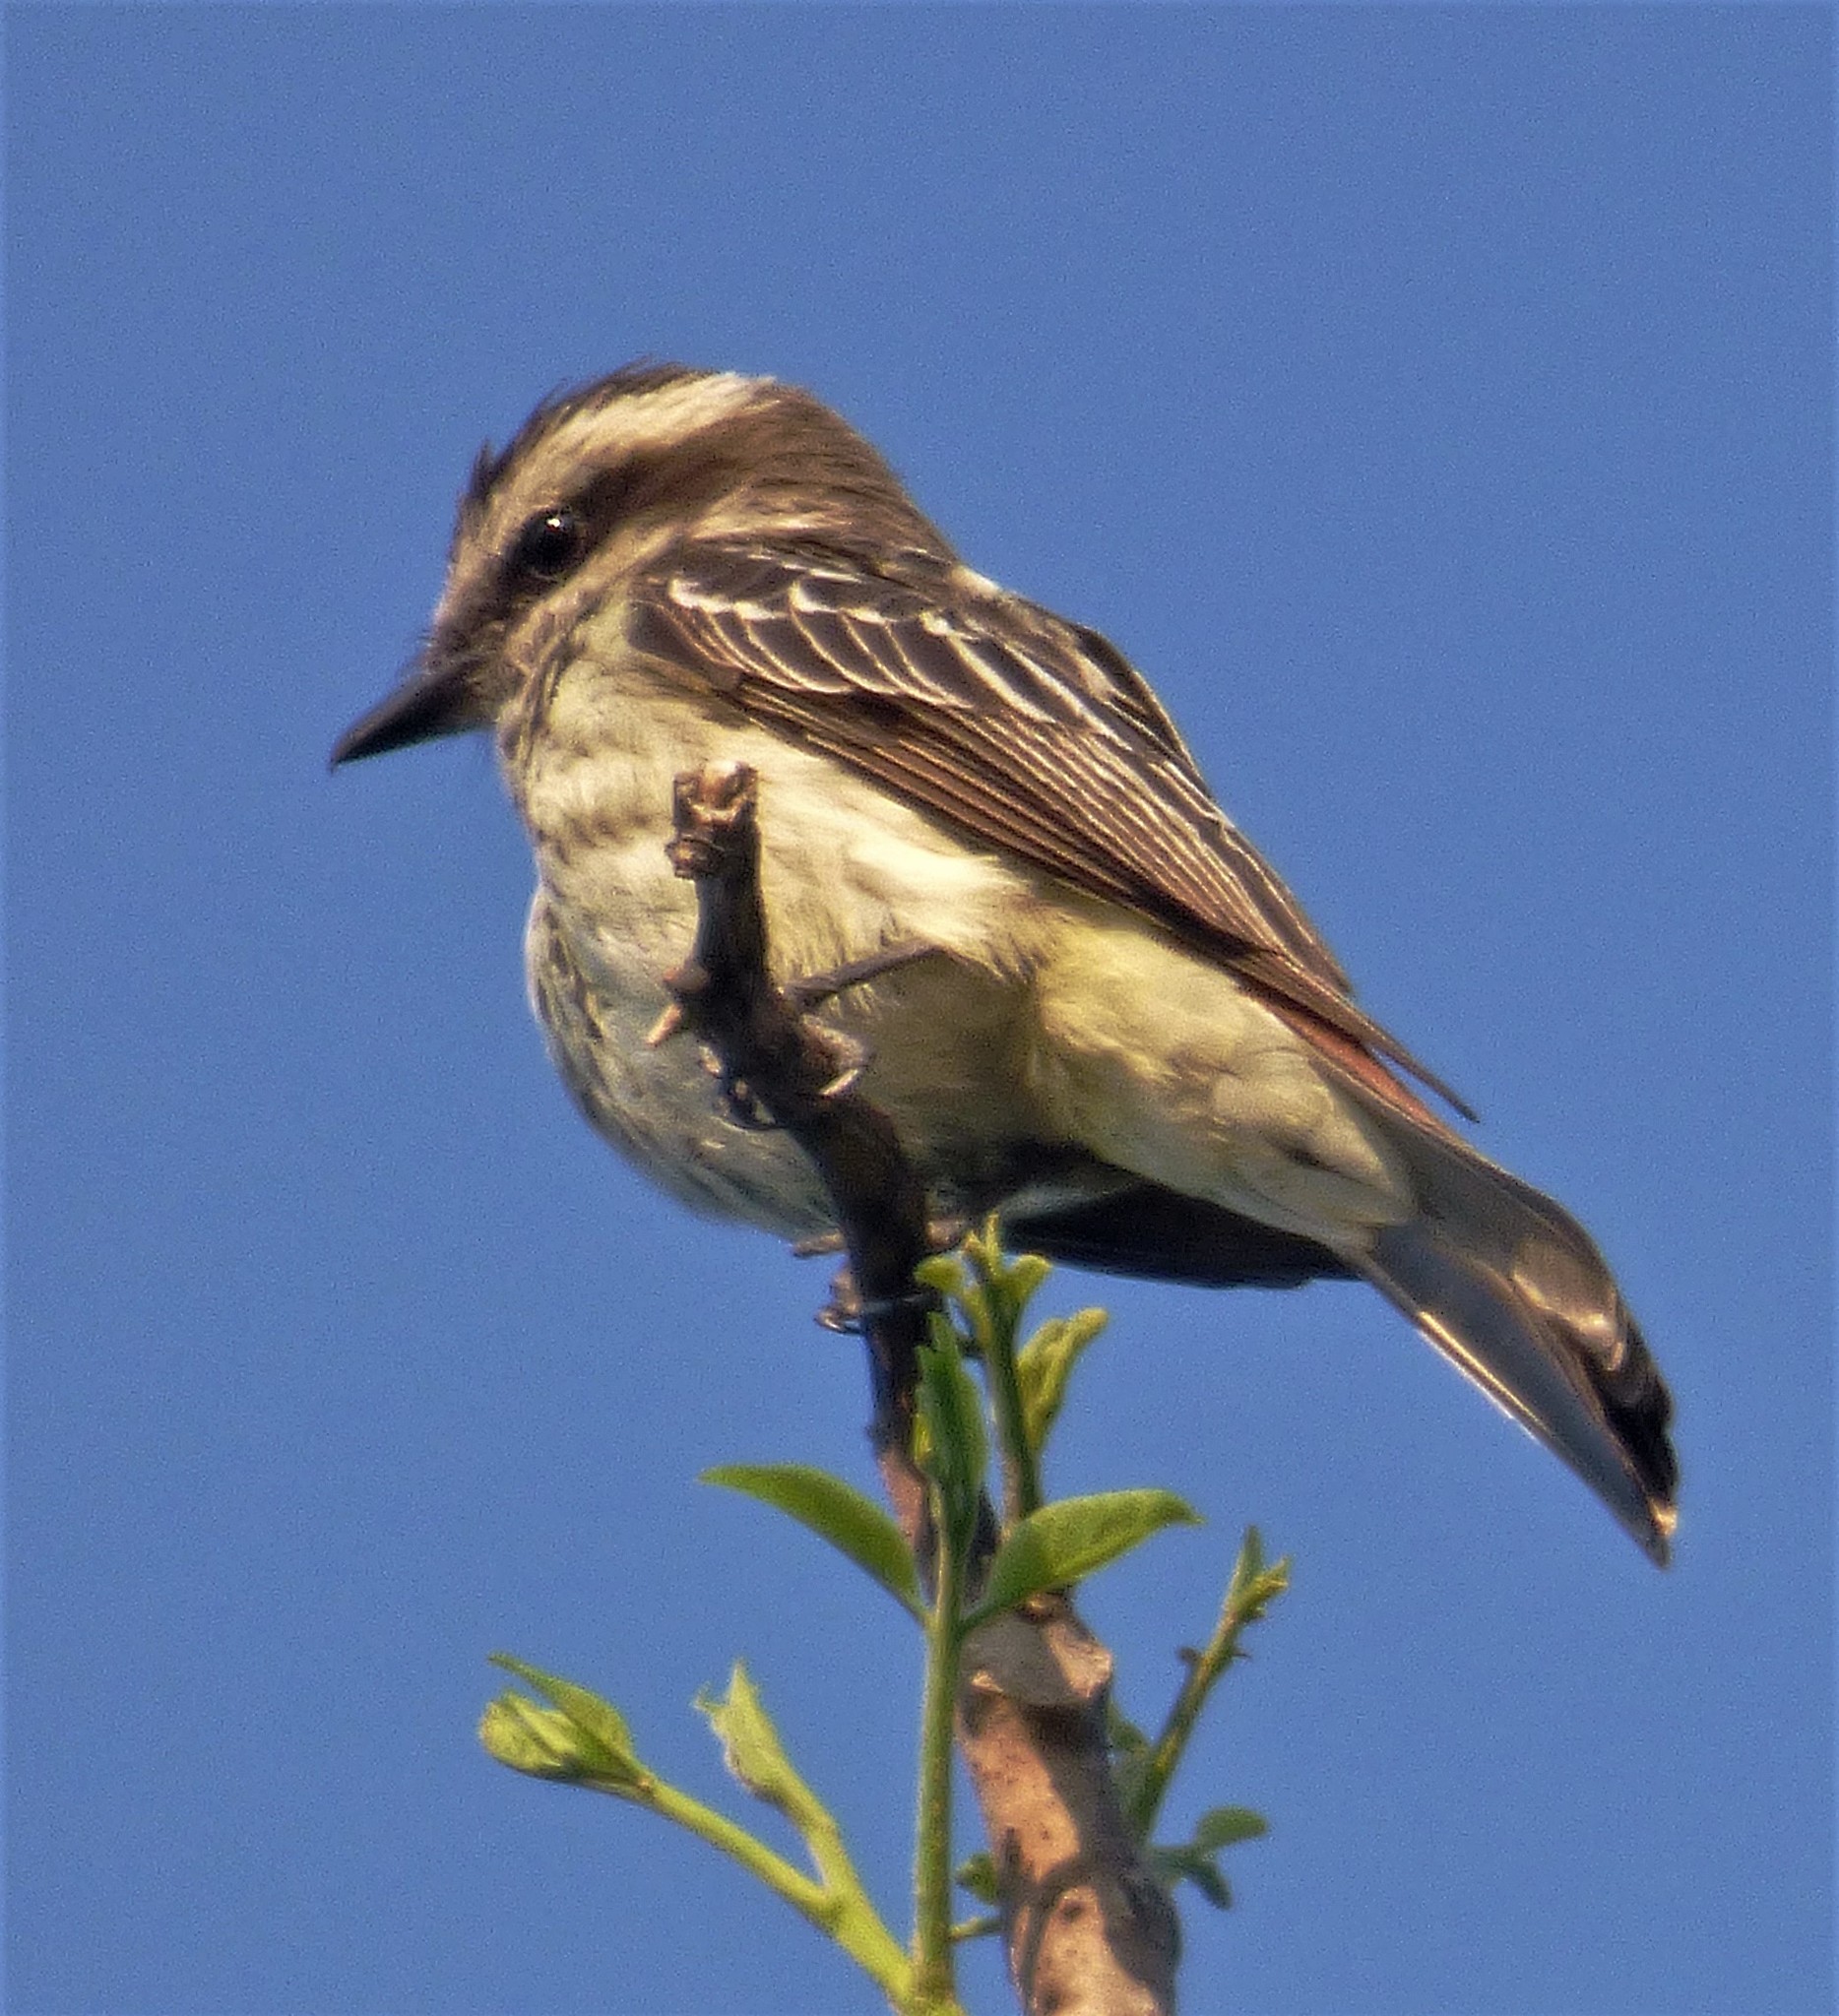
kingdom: Animalia
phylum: Chordata
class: Aves
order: Passeriformes
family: Tyrannidae
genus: Empidonomus
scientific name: Empidonomus varius
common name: Variegated flycatcher
